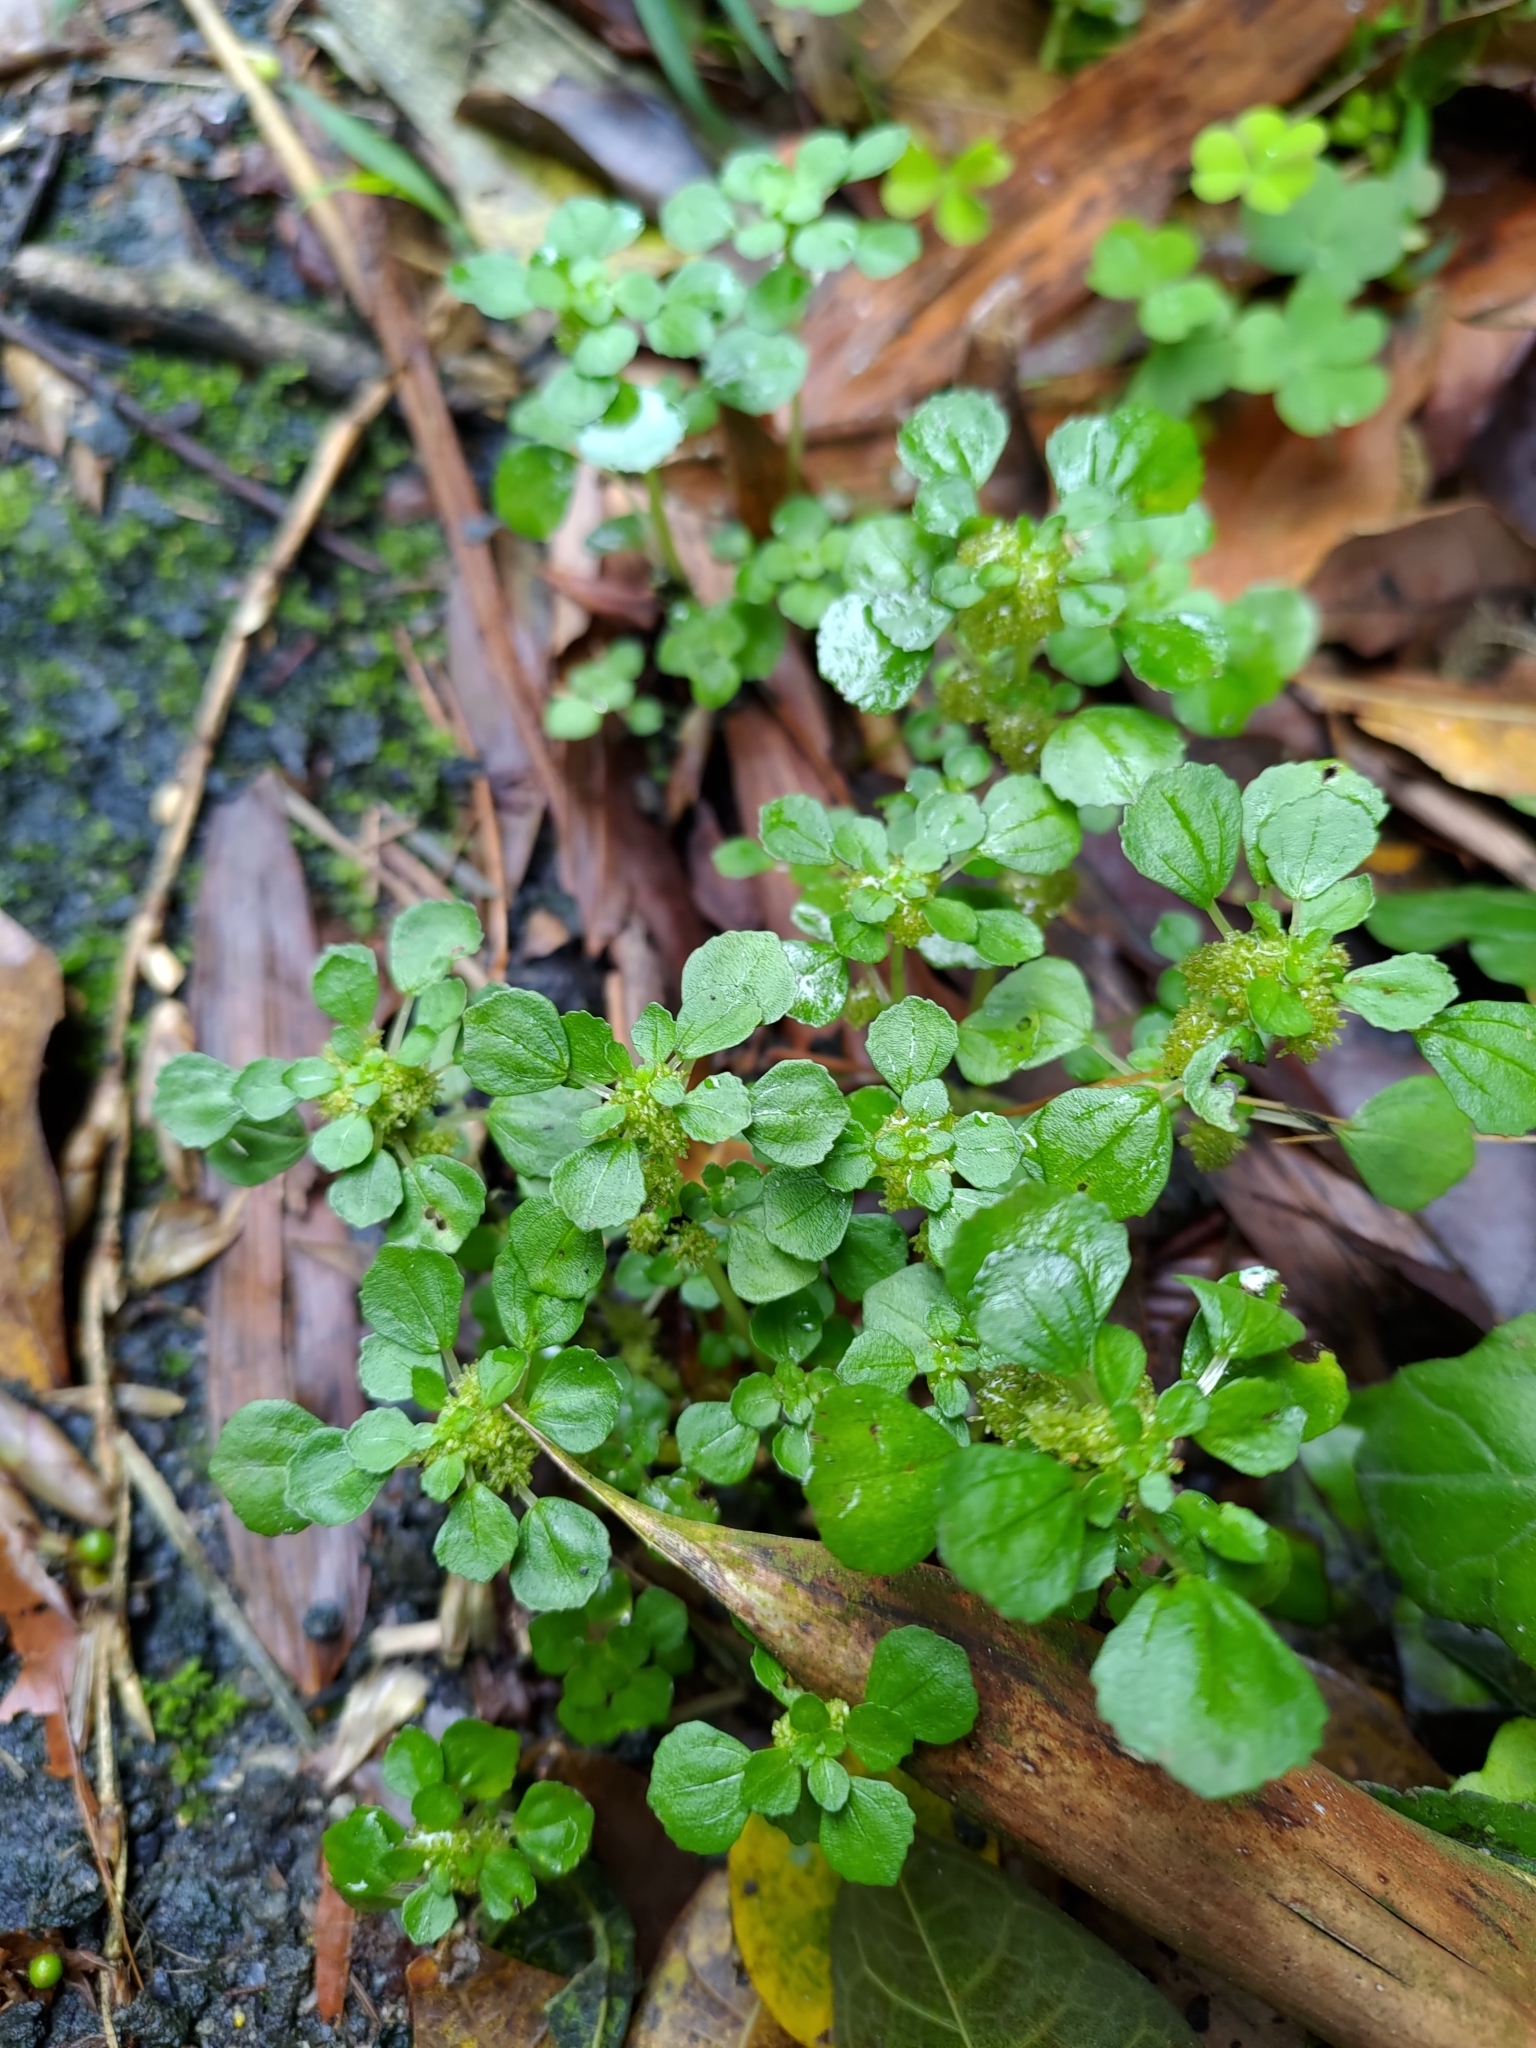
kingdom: Plantae
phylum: Tracheophyta
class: Magnoliopsida
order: Rosales
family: Urticaceae
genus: Pilea
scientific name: Pilea peploides
